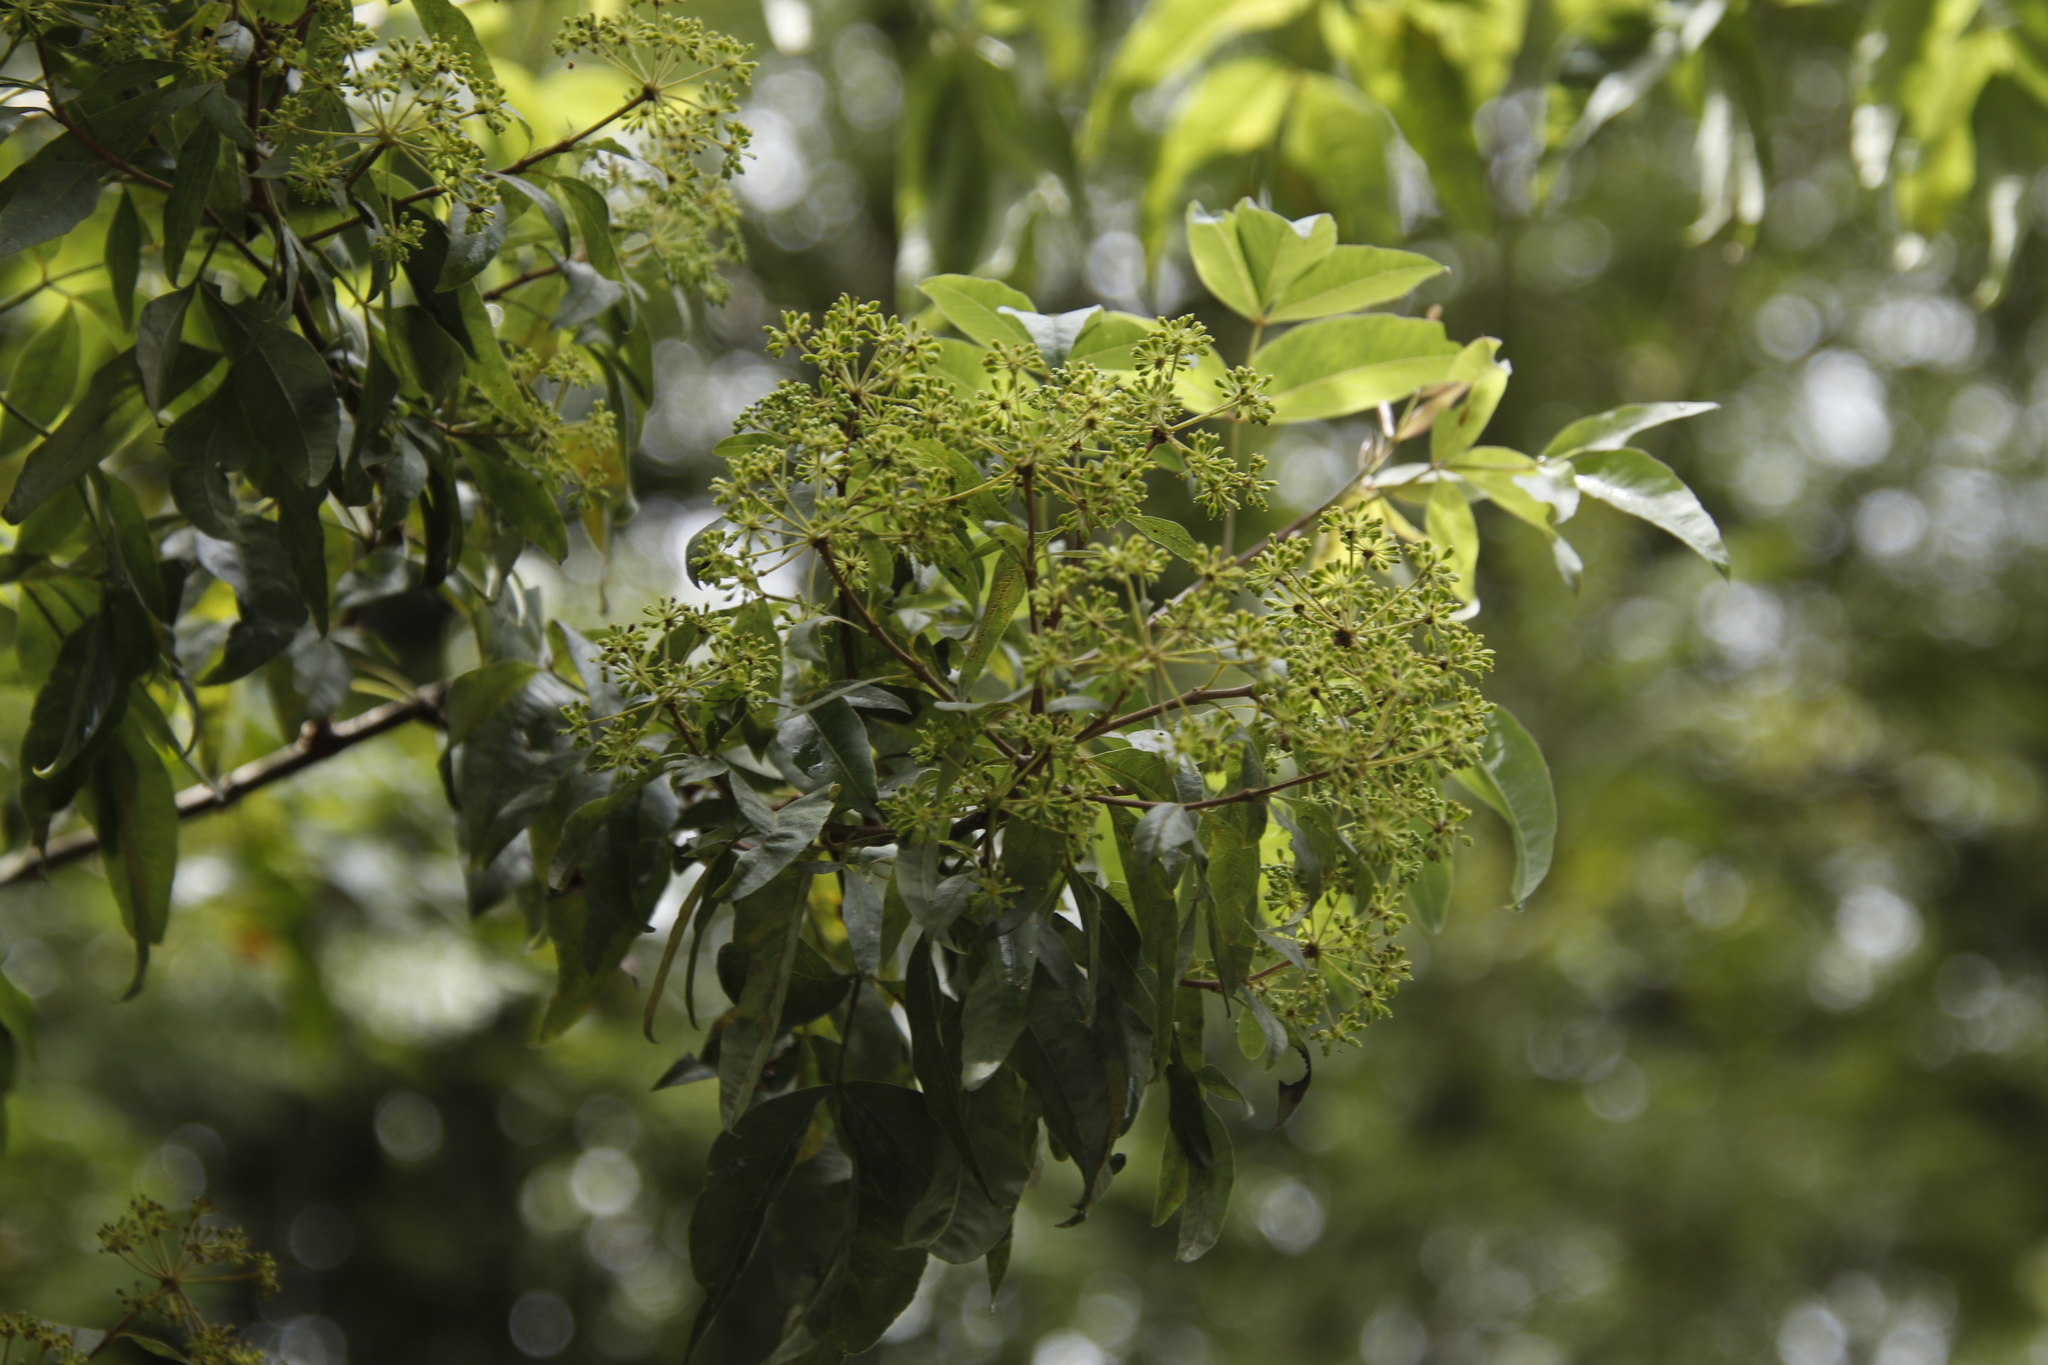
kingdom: Plantae
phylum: Tracheophyta
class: Magnoliopsida
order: Apiales
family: Apiaceae
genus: Heteromorpha
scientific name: Heteromorpha arborescens
